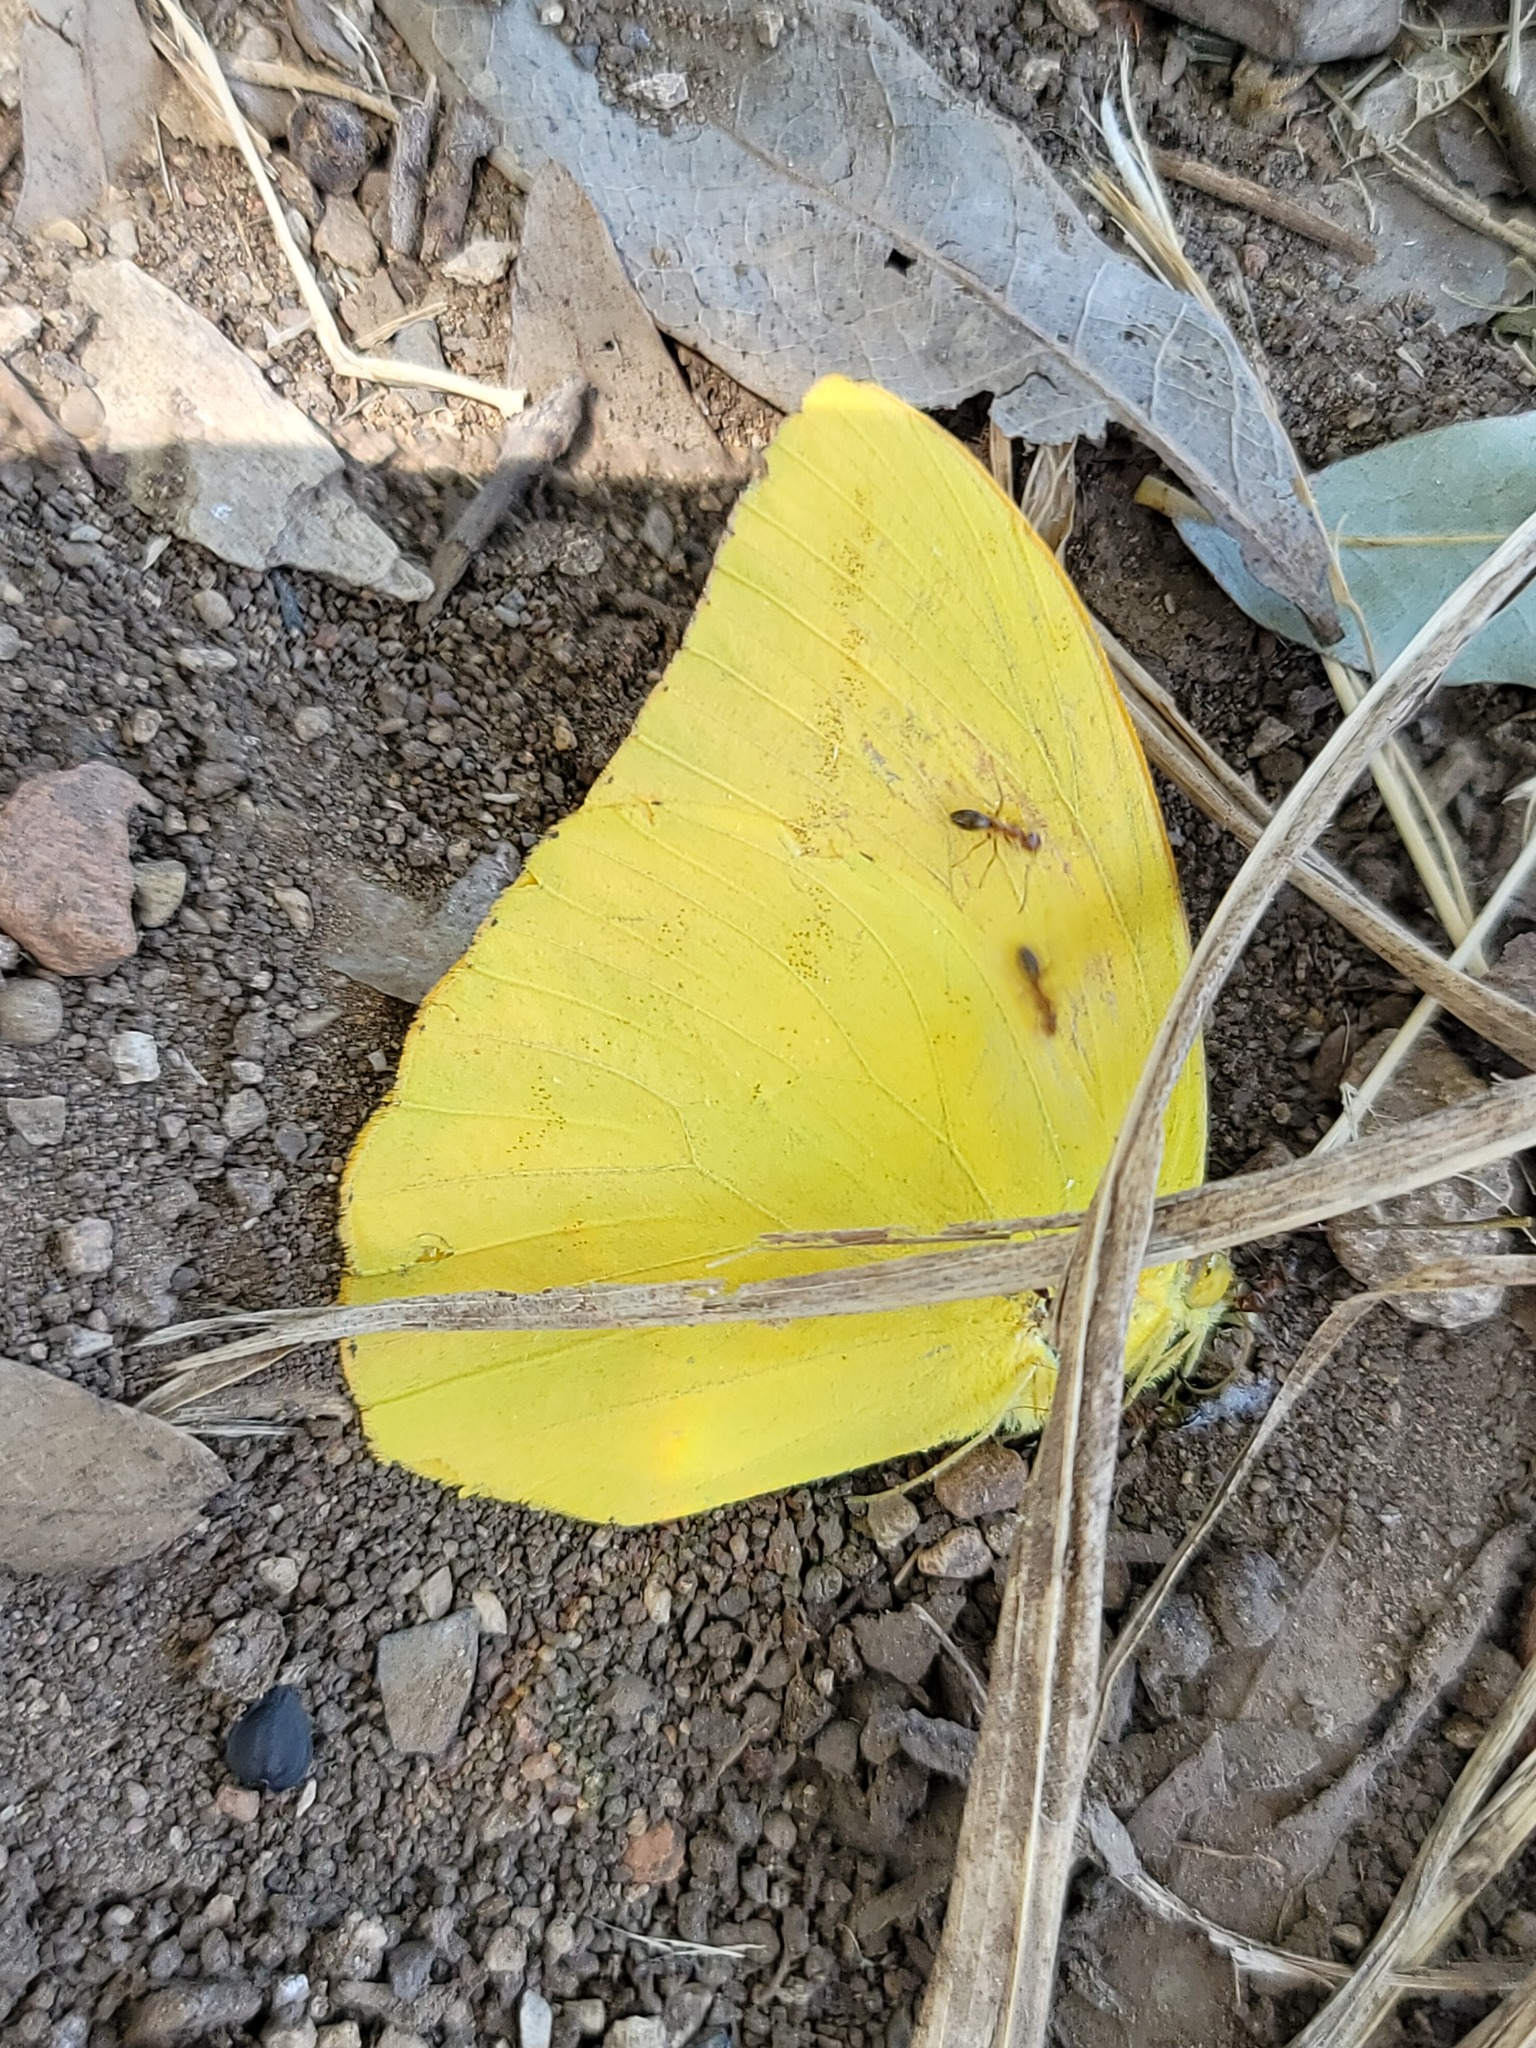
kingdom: Animalia
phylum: Arthropoda
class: Insecta
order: Lepidoptera
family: Pieridae
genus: Phoebis
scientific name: Phoebis agarithe
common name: Large orange sulphur
